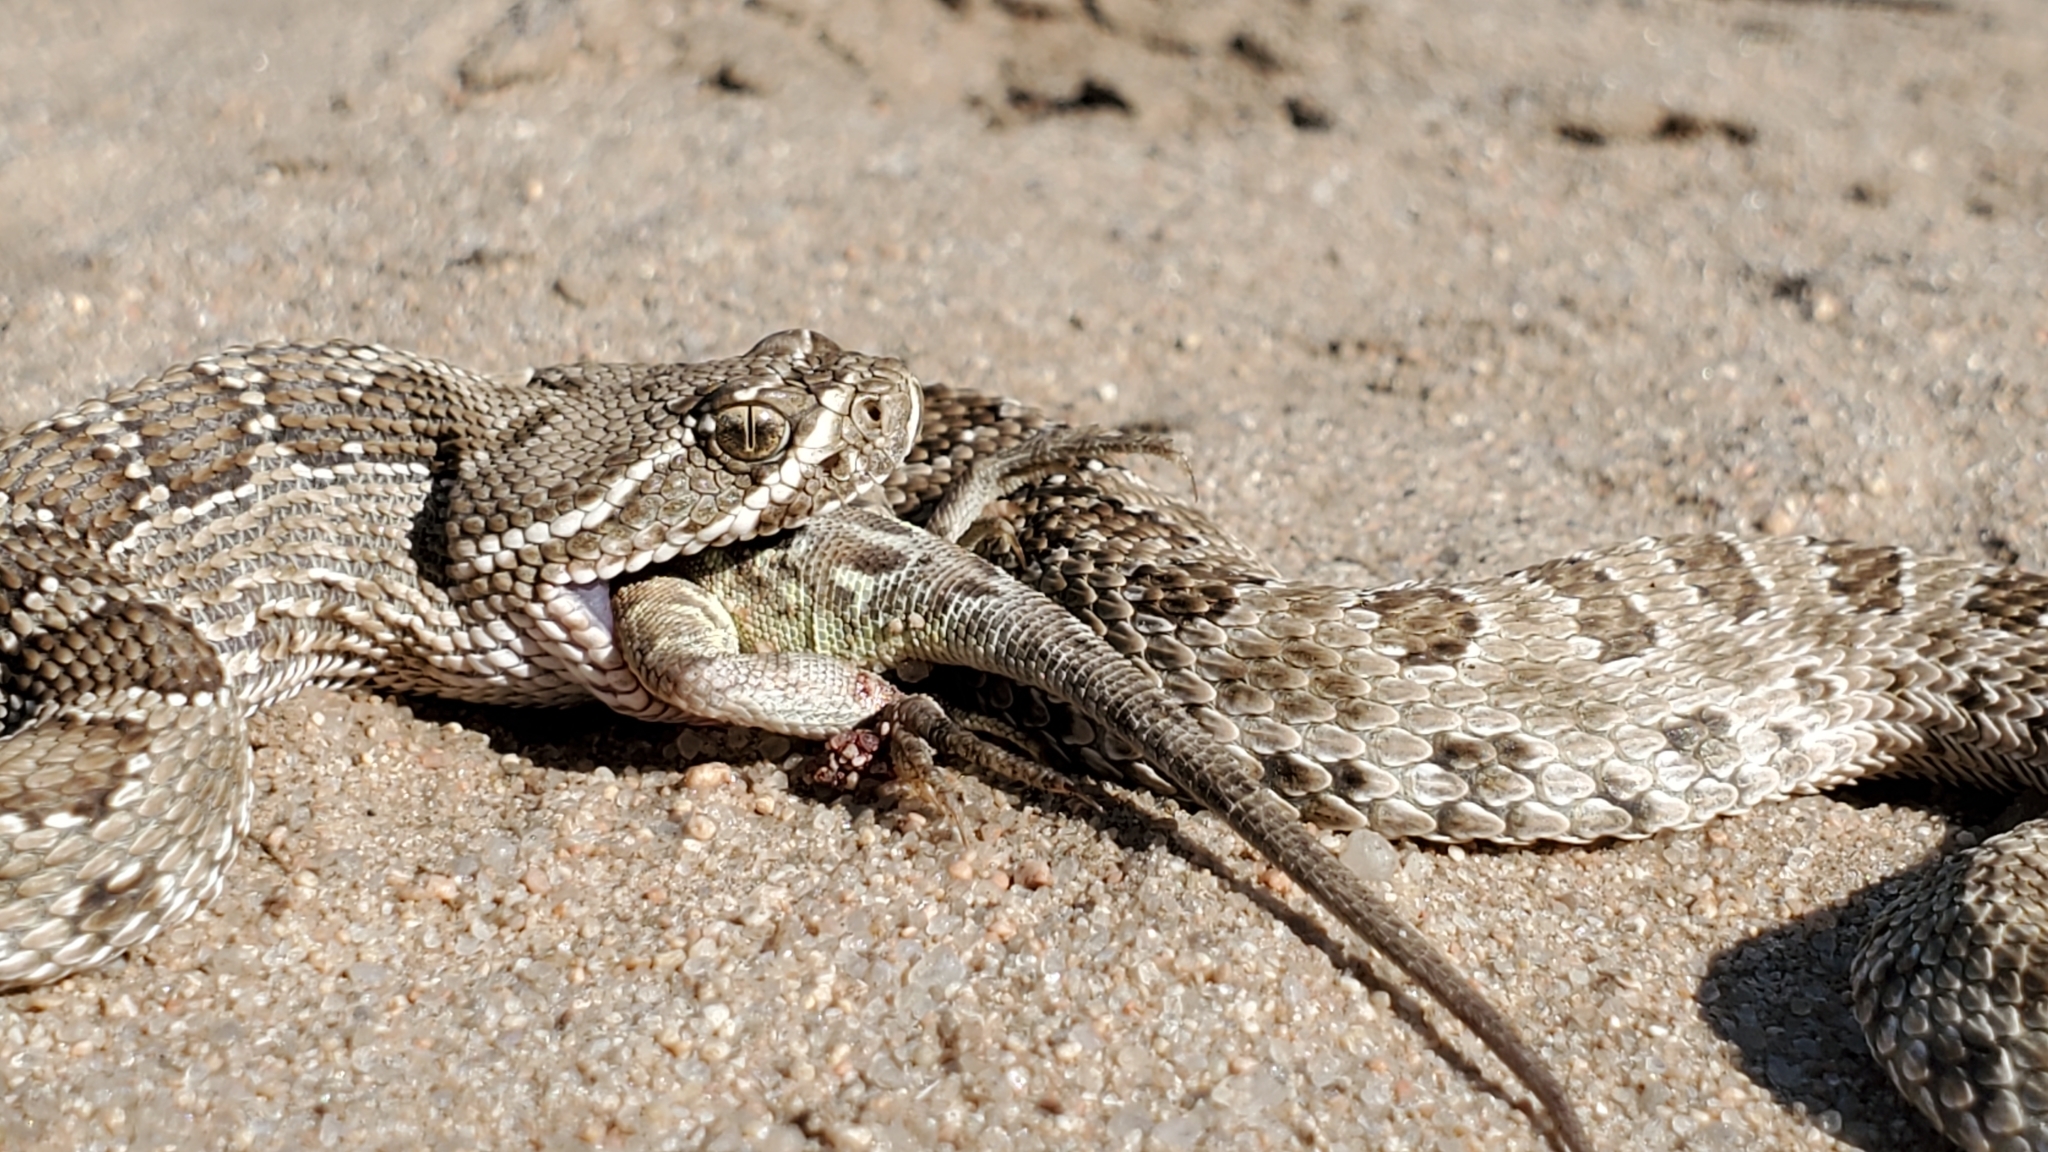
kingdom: Animalia
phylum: Chordata
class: Squamata
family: Viperidae
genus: Crotalus
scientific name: Crotalus viridis
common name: Prairie rattlesnake
